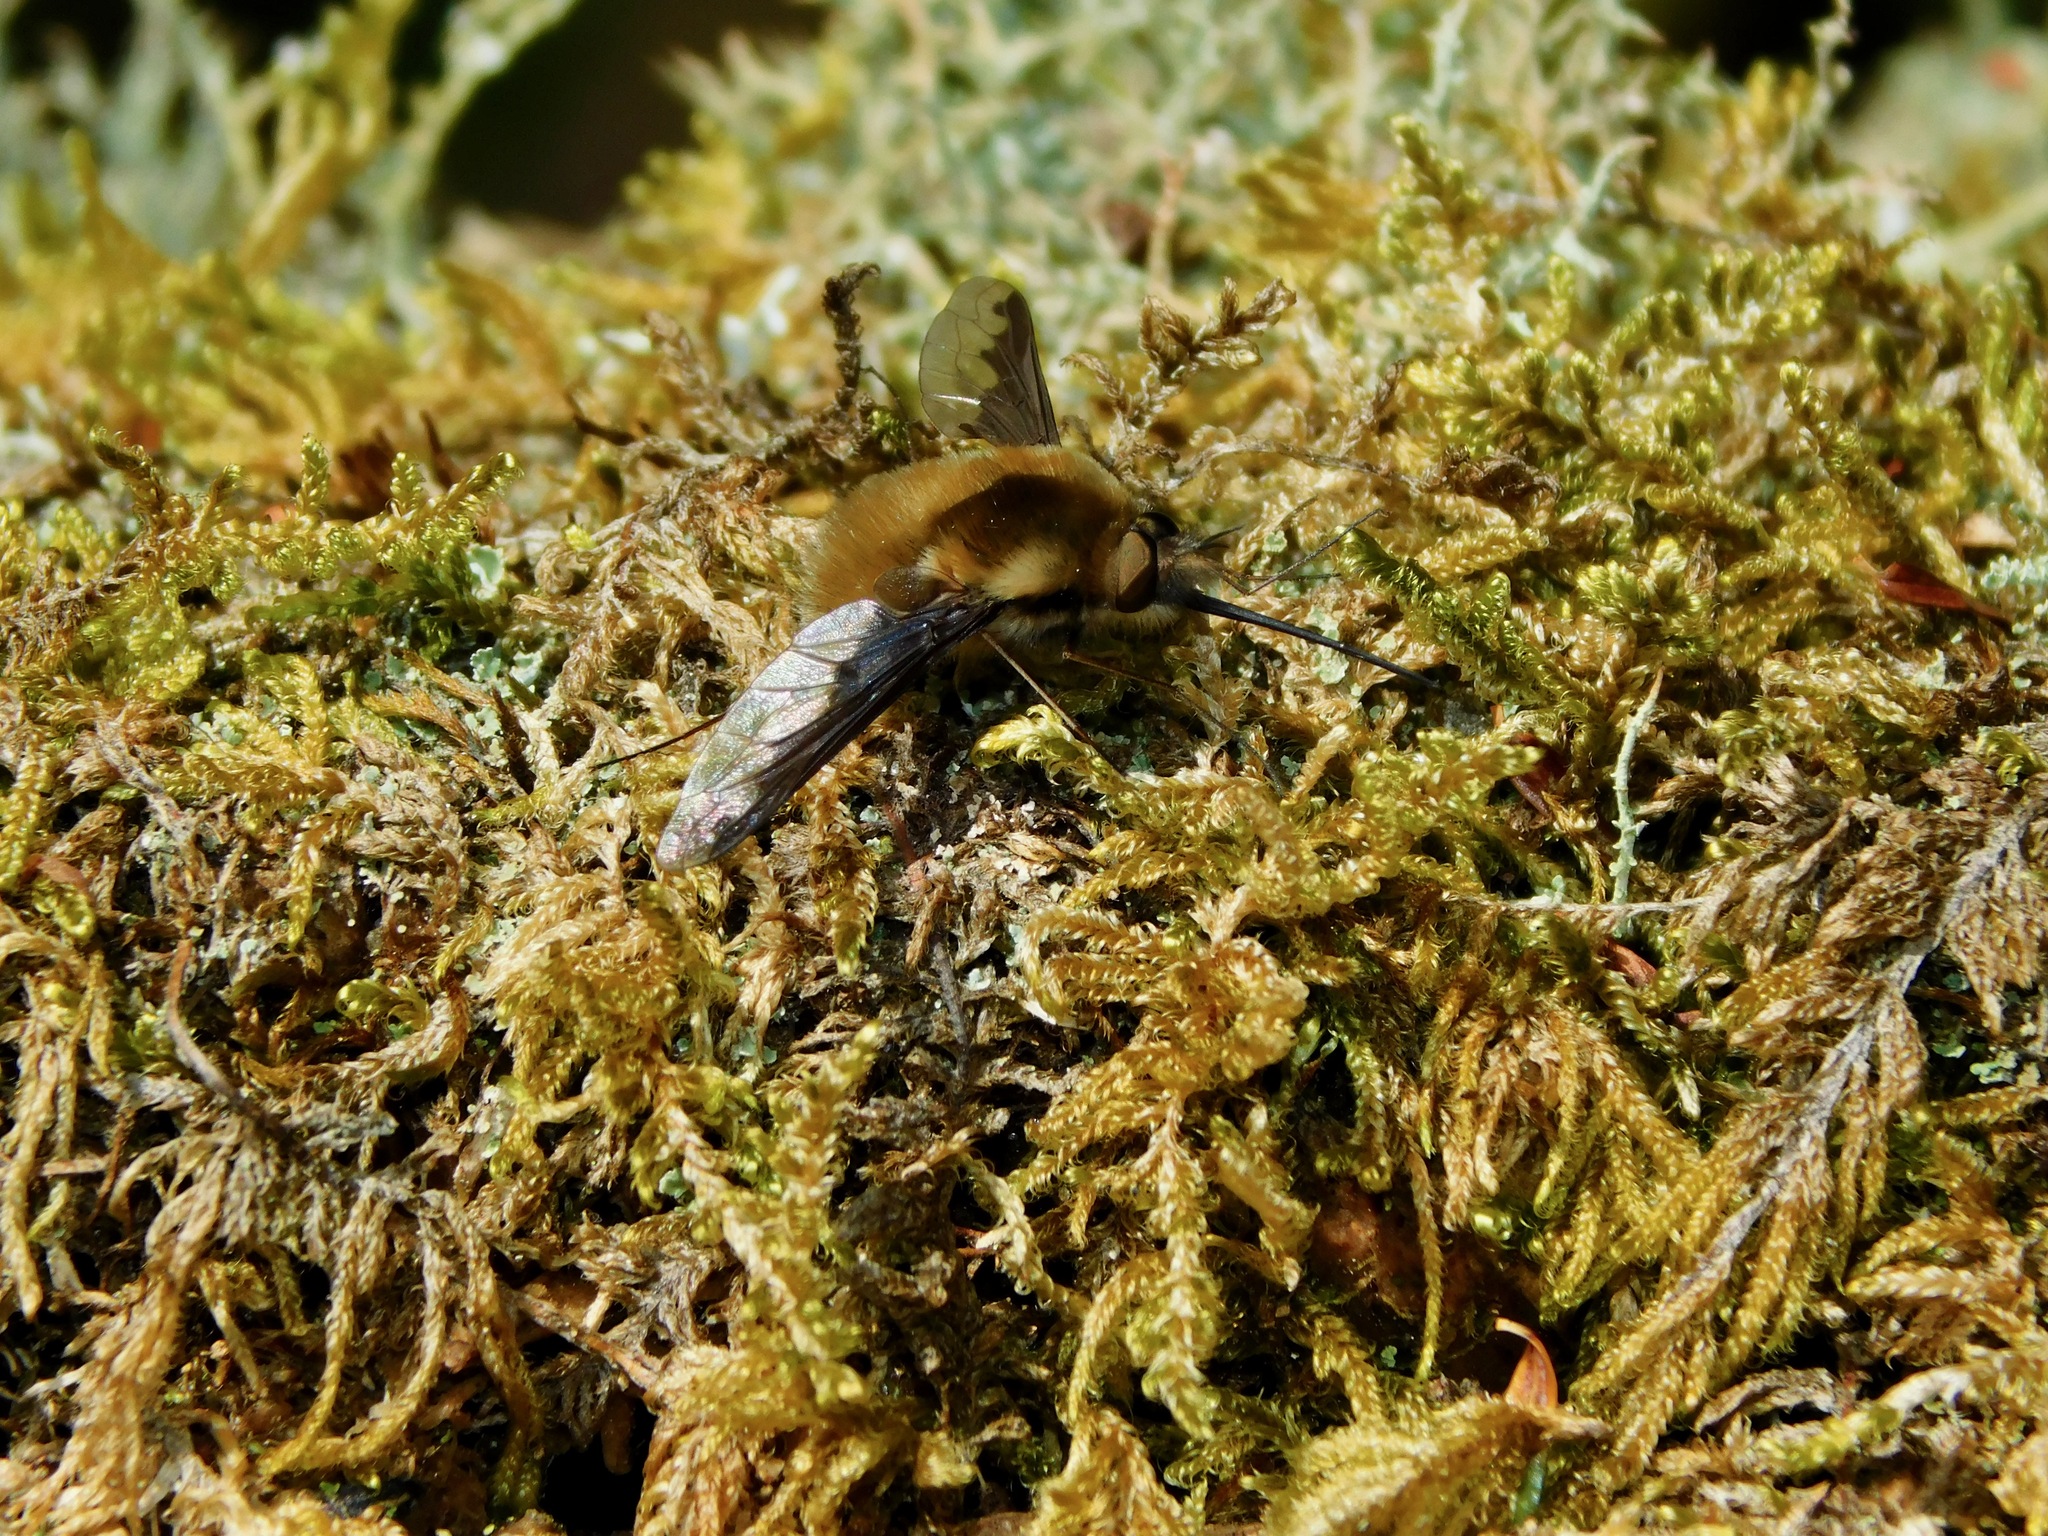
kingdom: Animalia
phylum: Arthropoda
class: Insecta
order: Diptera
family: Bombyliidae
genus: Bombylius
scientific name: Bombylius major
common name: Bee fly
